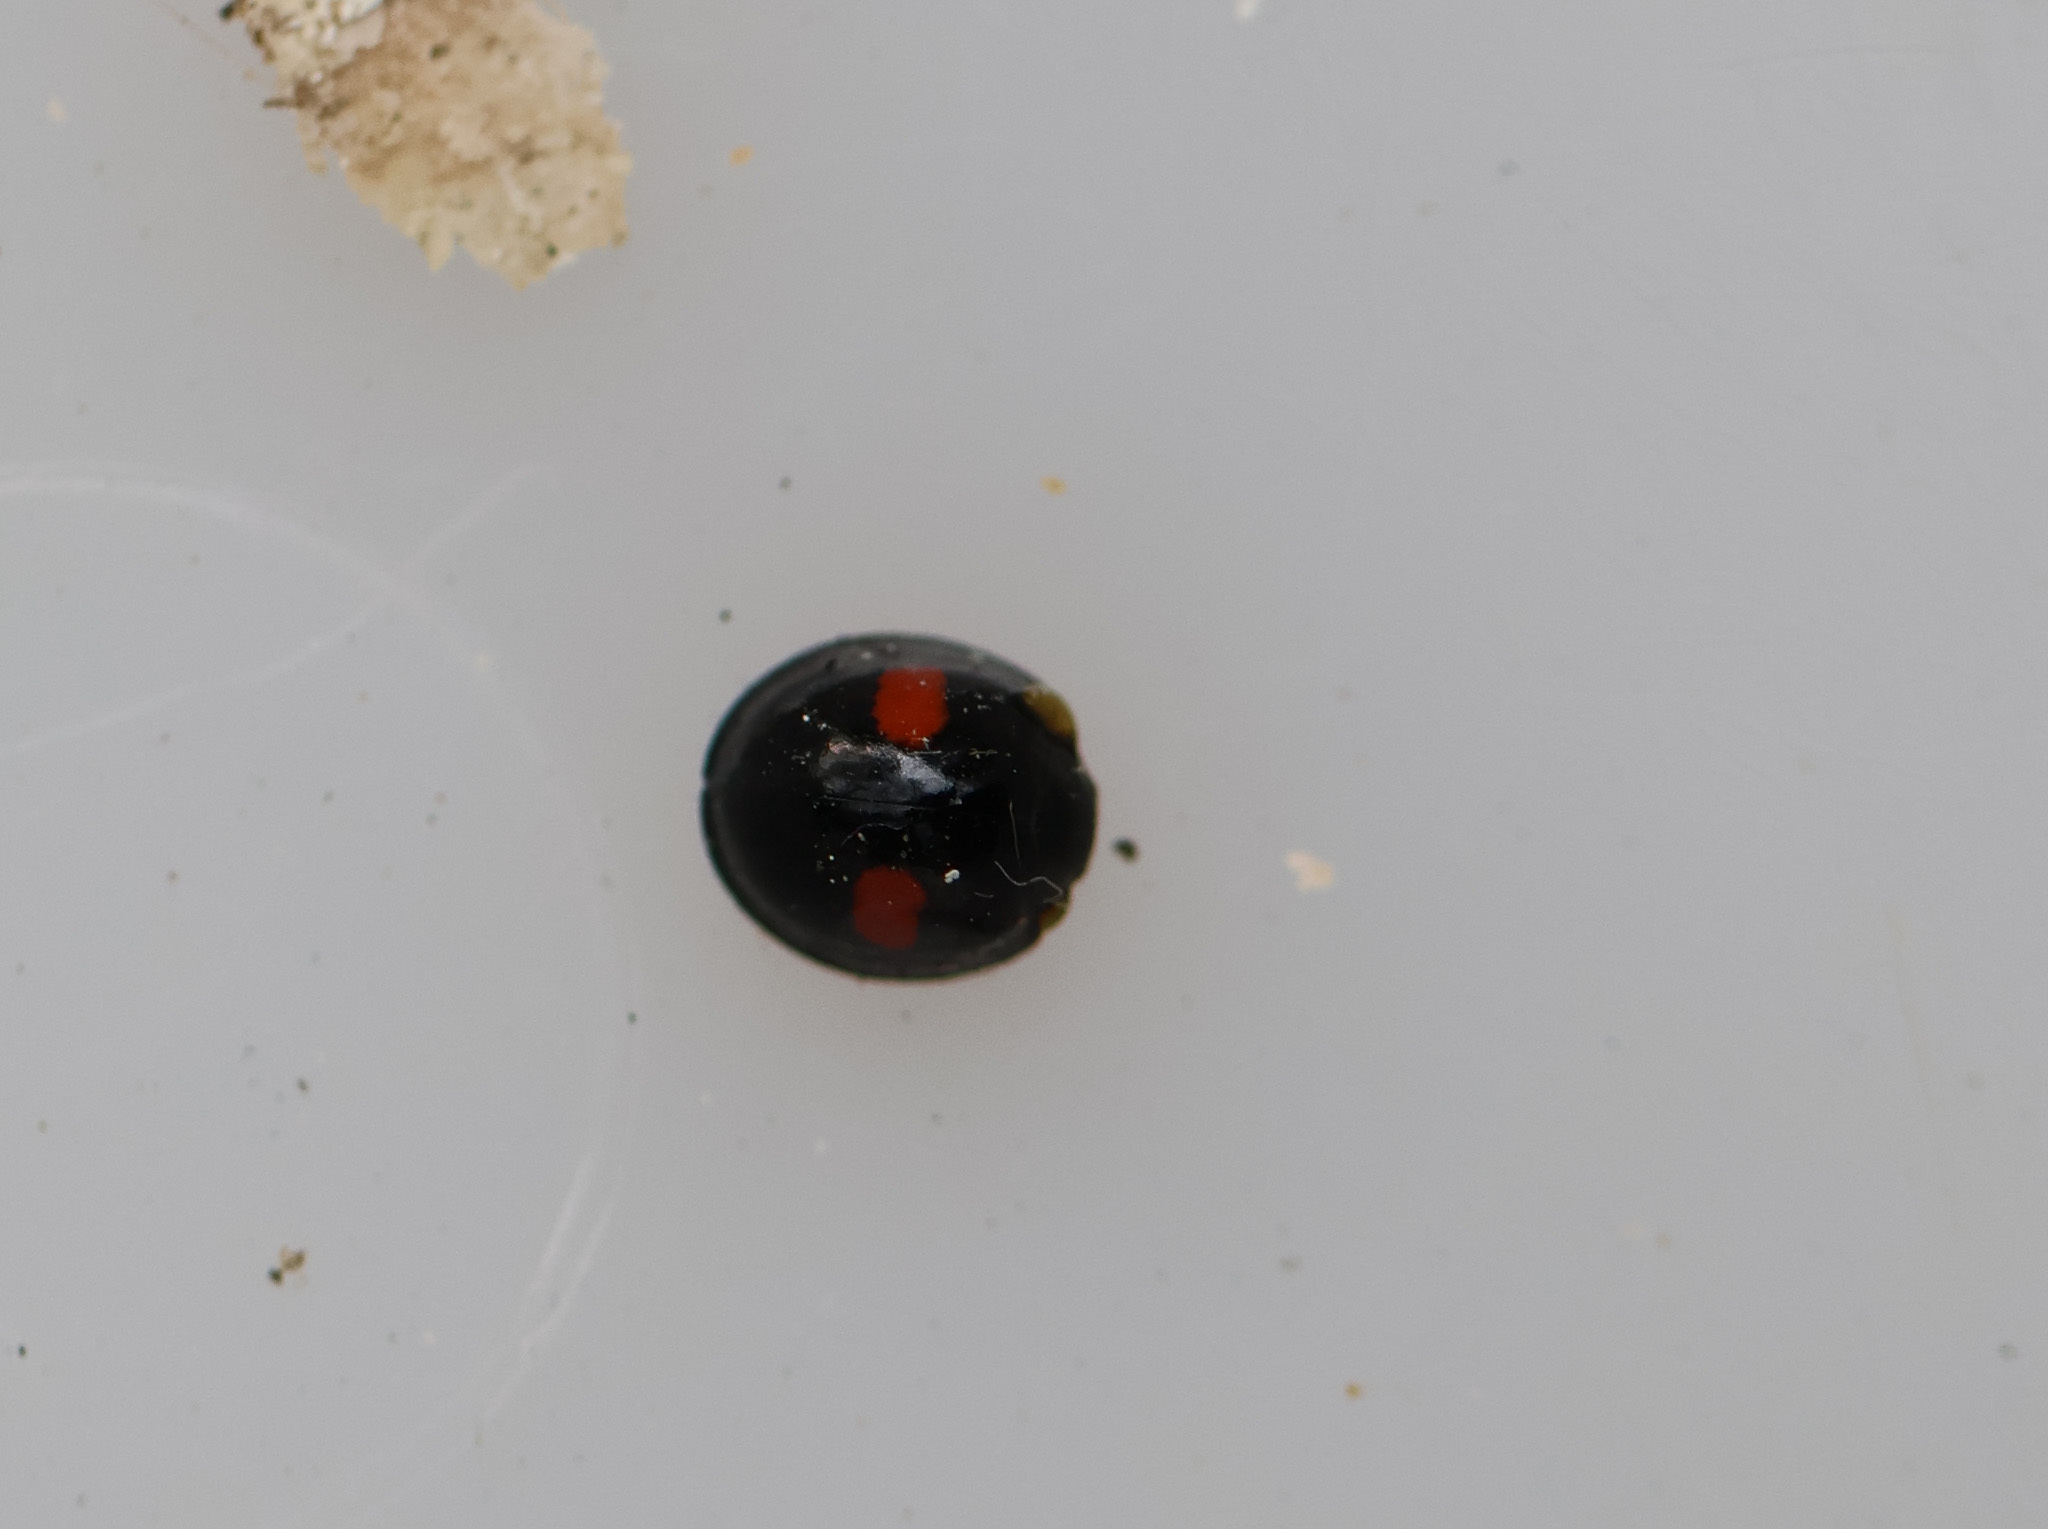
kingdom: Animalia
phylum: Arthropoda
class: Insecta
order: Coleoptera
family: Coccinellidae
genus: Chilocorus
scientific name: Chilocorus renipustulatus
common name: Kidney-spot ladybird
